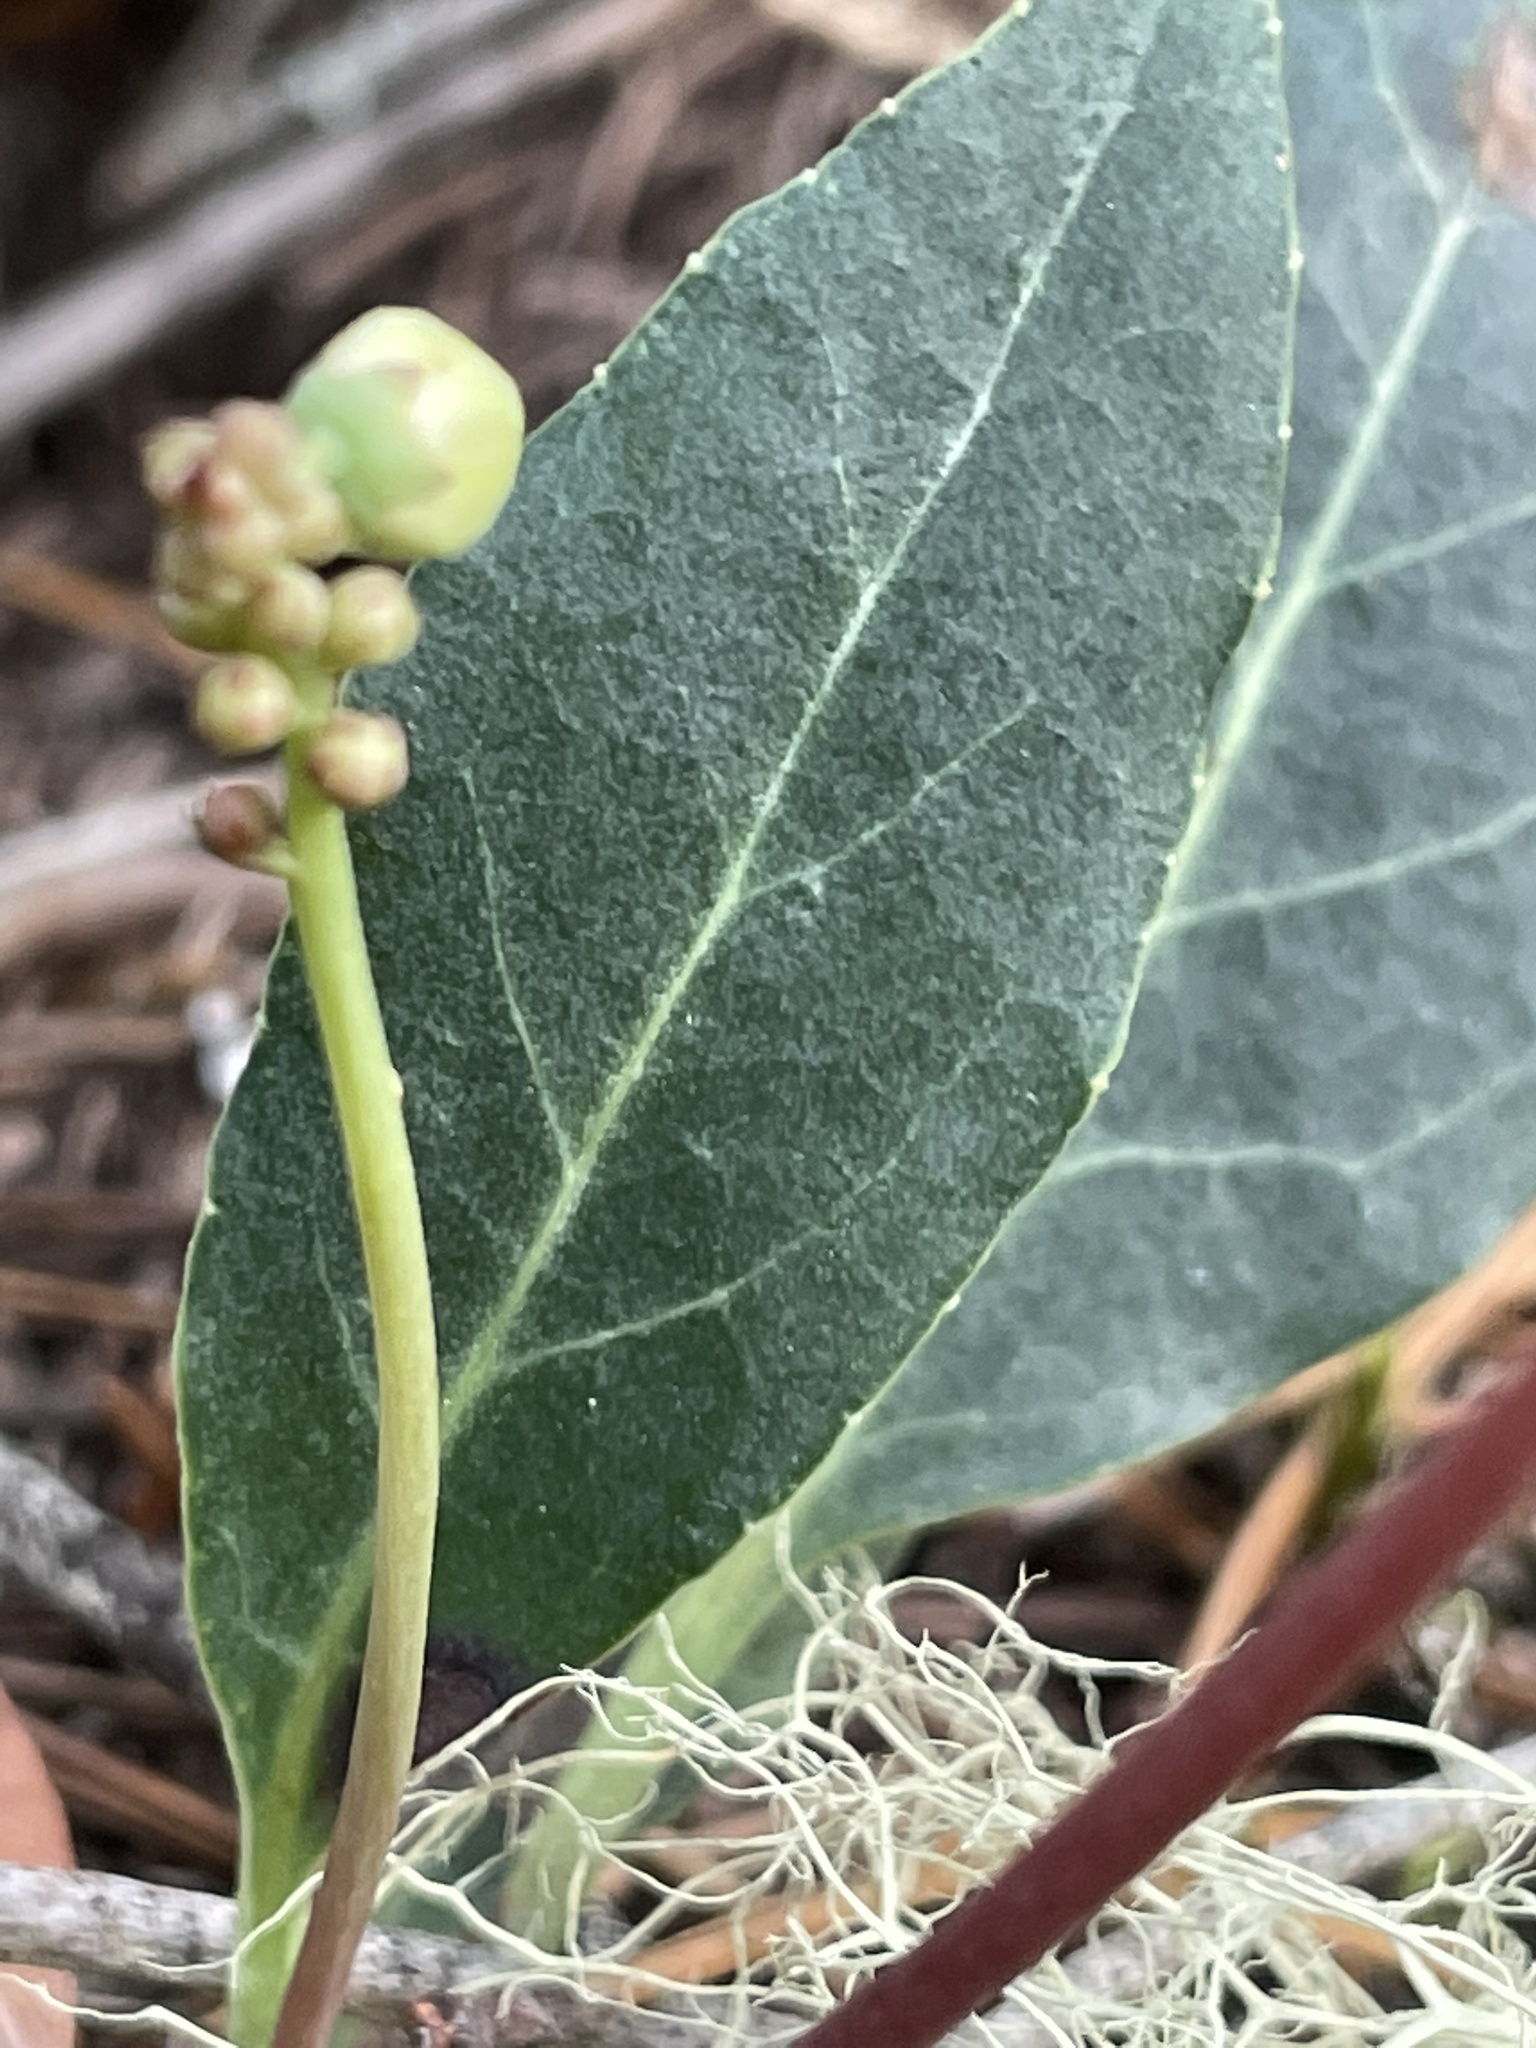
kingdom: Plantae
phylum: Tracheophyta
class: Magnoliopsida
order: Ericales
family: Ericaceae
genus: Pyrola
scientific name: Pyrola picta
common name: White-vein wintergreen
